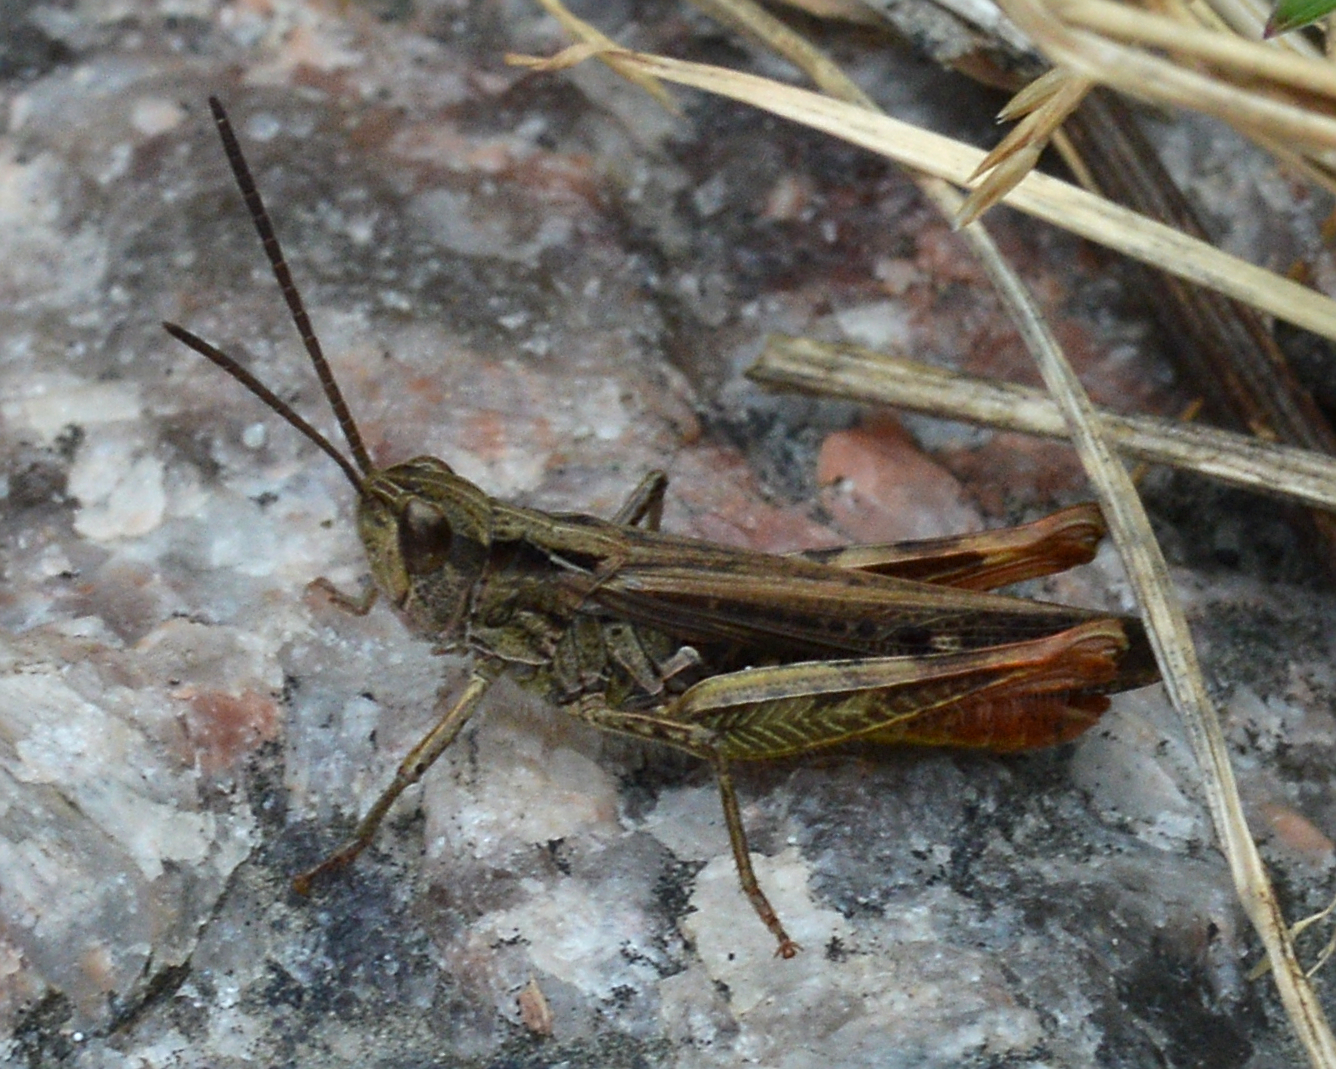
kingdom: Animalia
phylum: Arthropoda
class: Insecta
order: Orthoptera
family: Acrididae
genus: Chorthippus
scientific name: Chorthippus brunneus
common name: Field grasshopper
